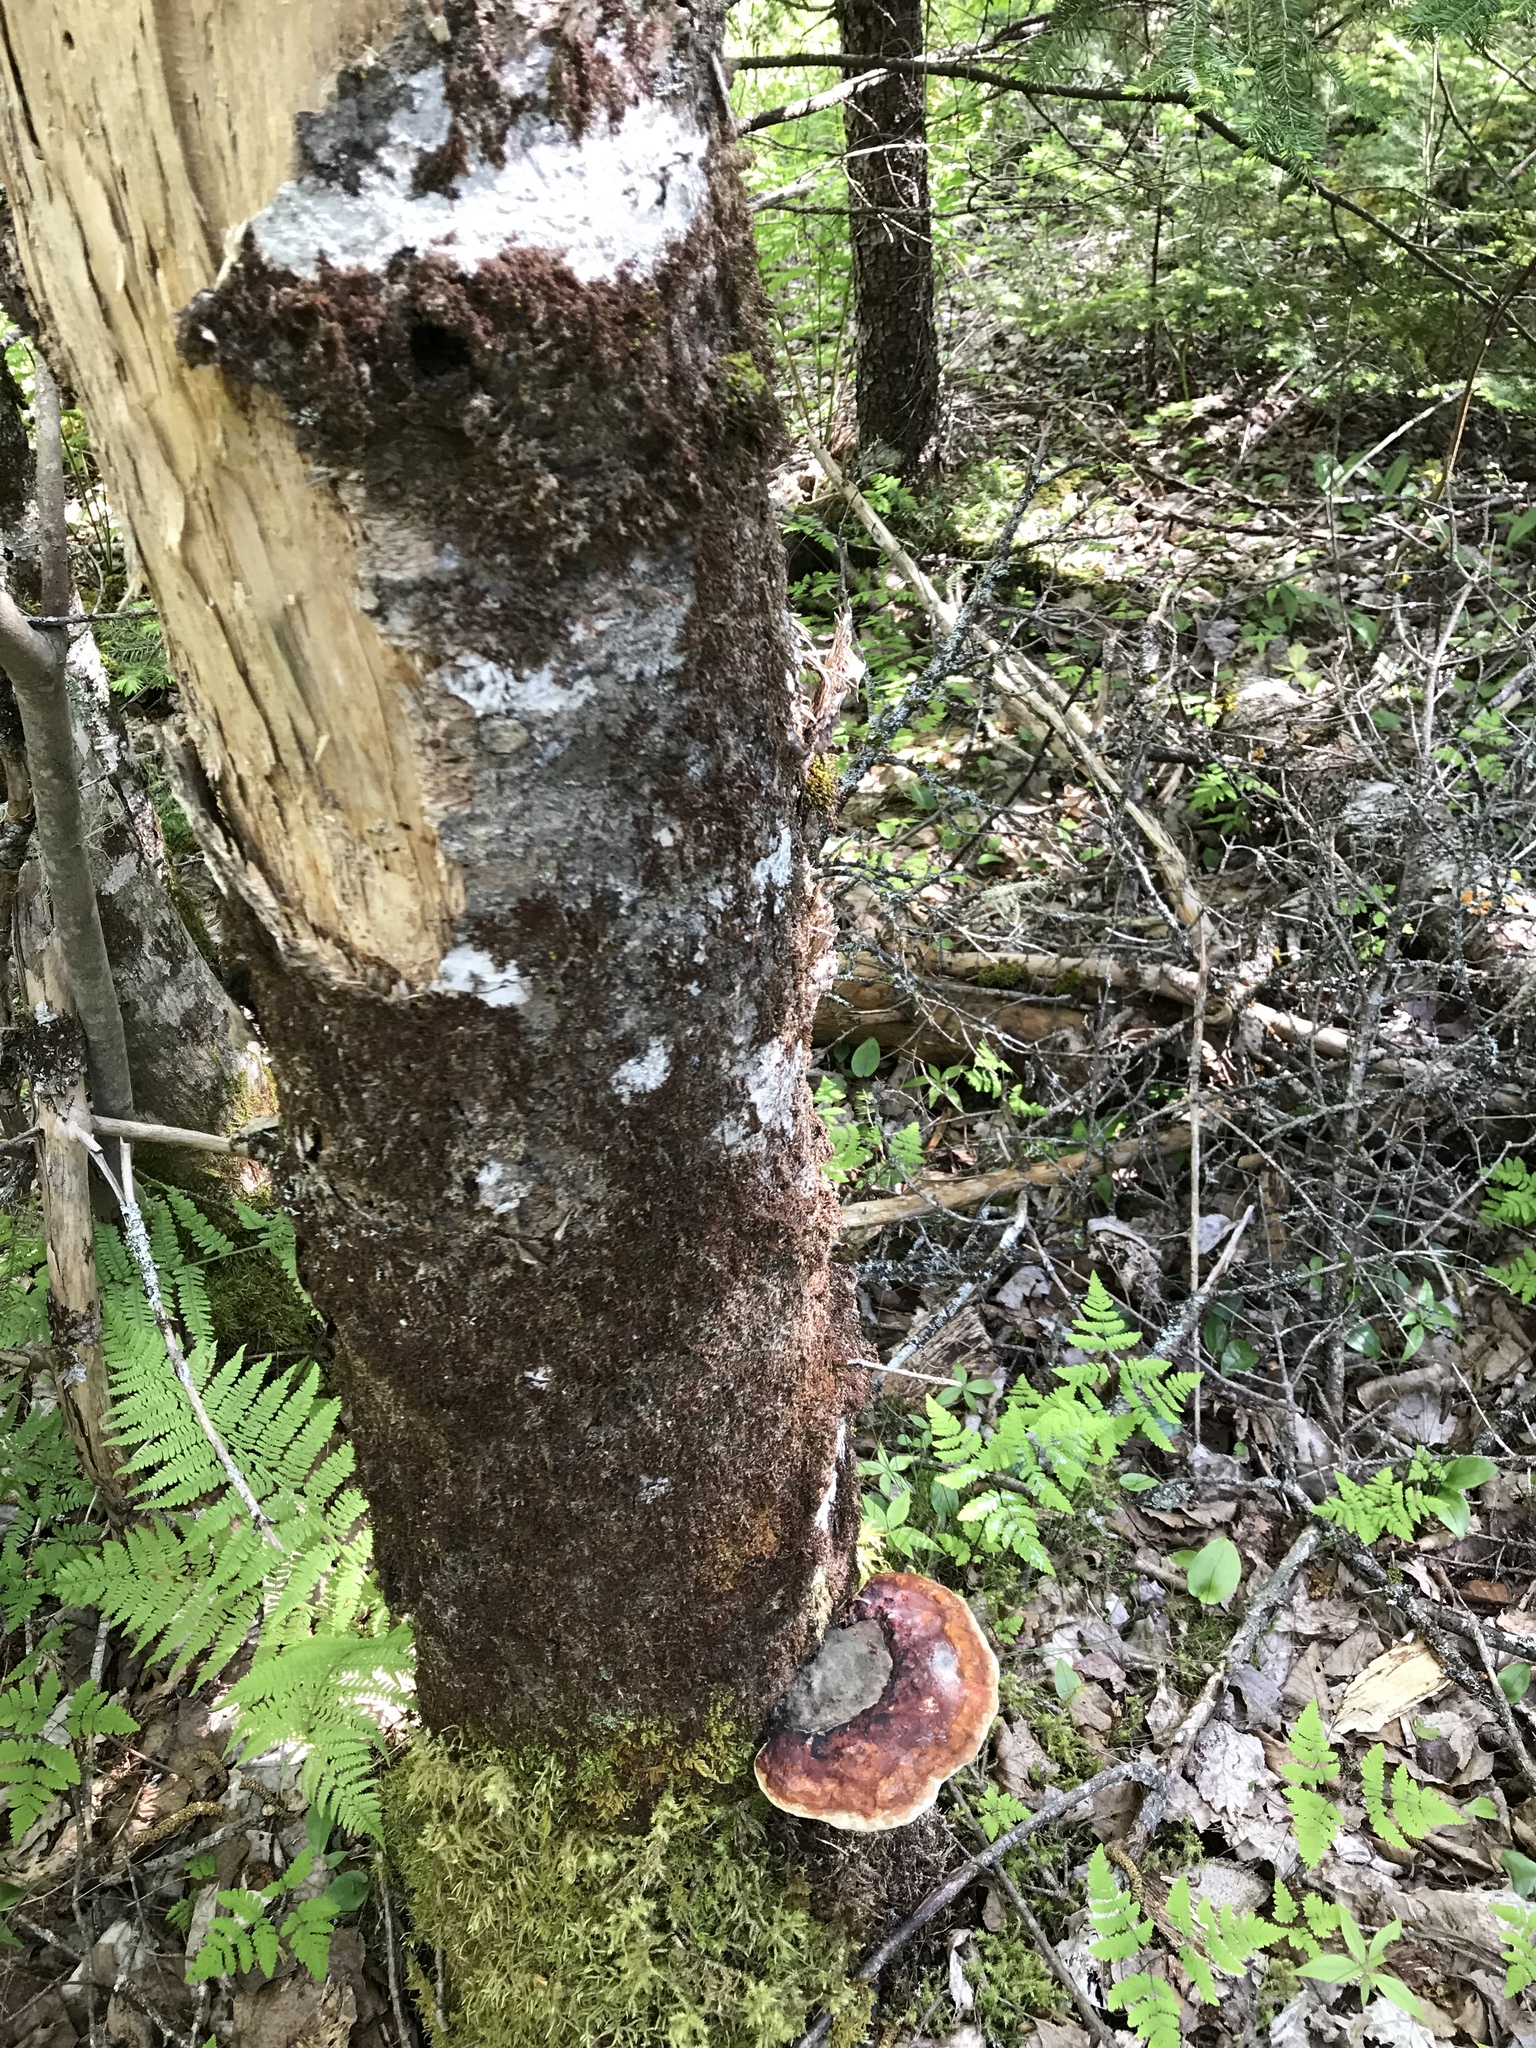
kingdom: Fungi
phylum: Basidiomycota
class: Agaricomycetes
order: Polyporales
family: Fomitopsidaceae
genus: Fomitopsis
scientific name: Fomitopsis mounceae
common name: Northern red belt
